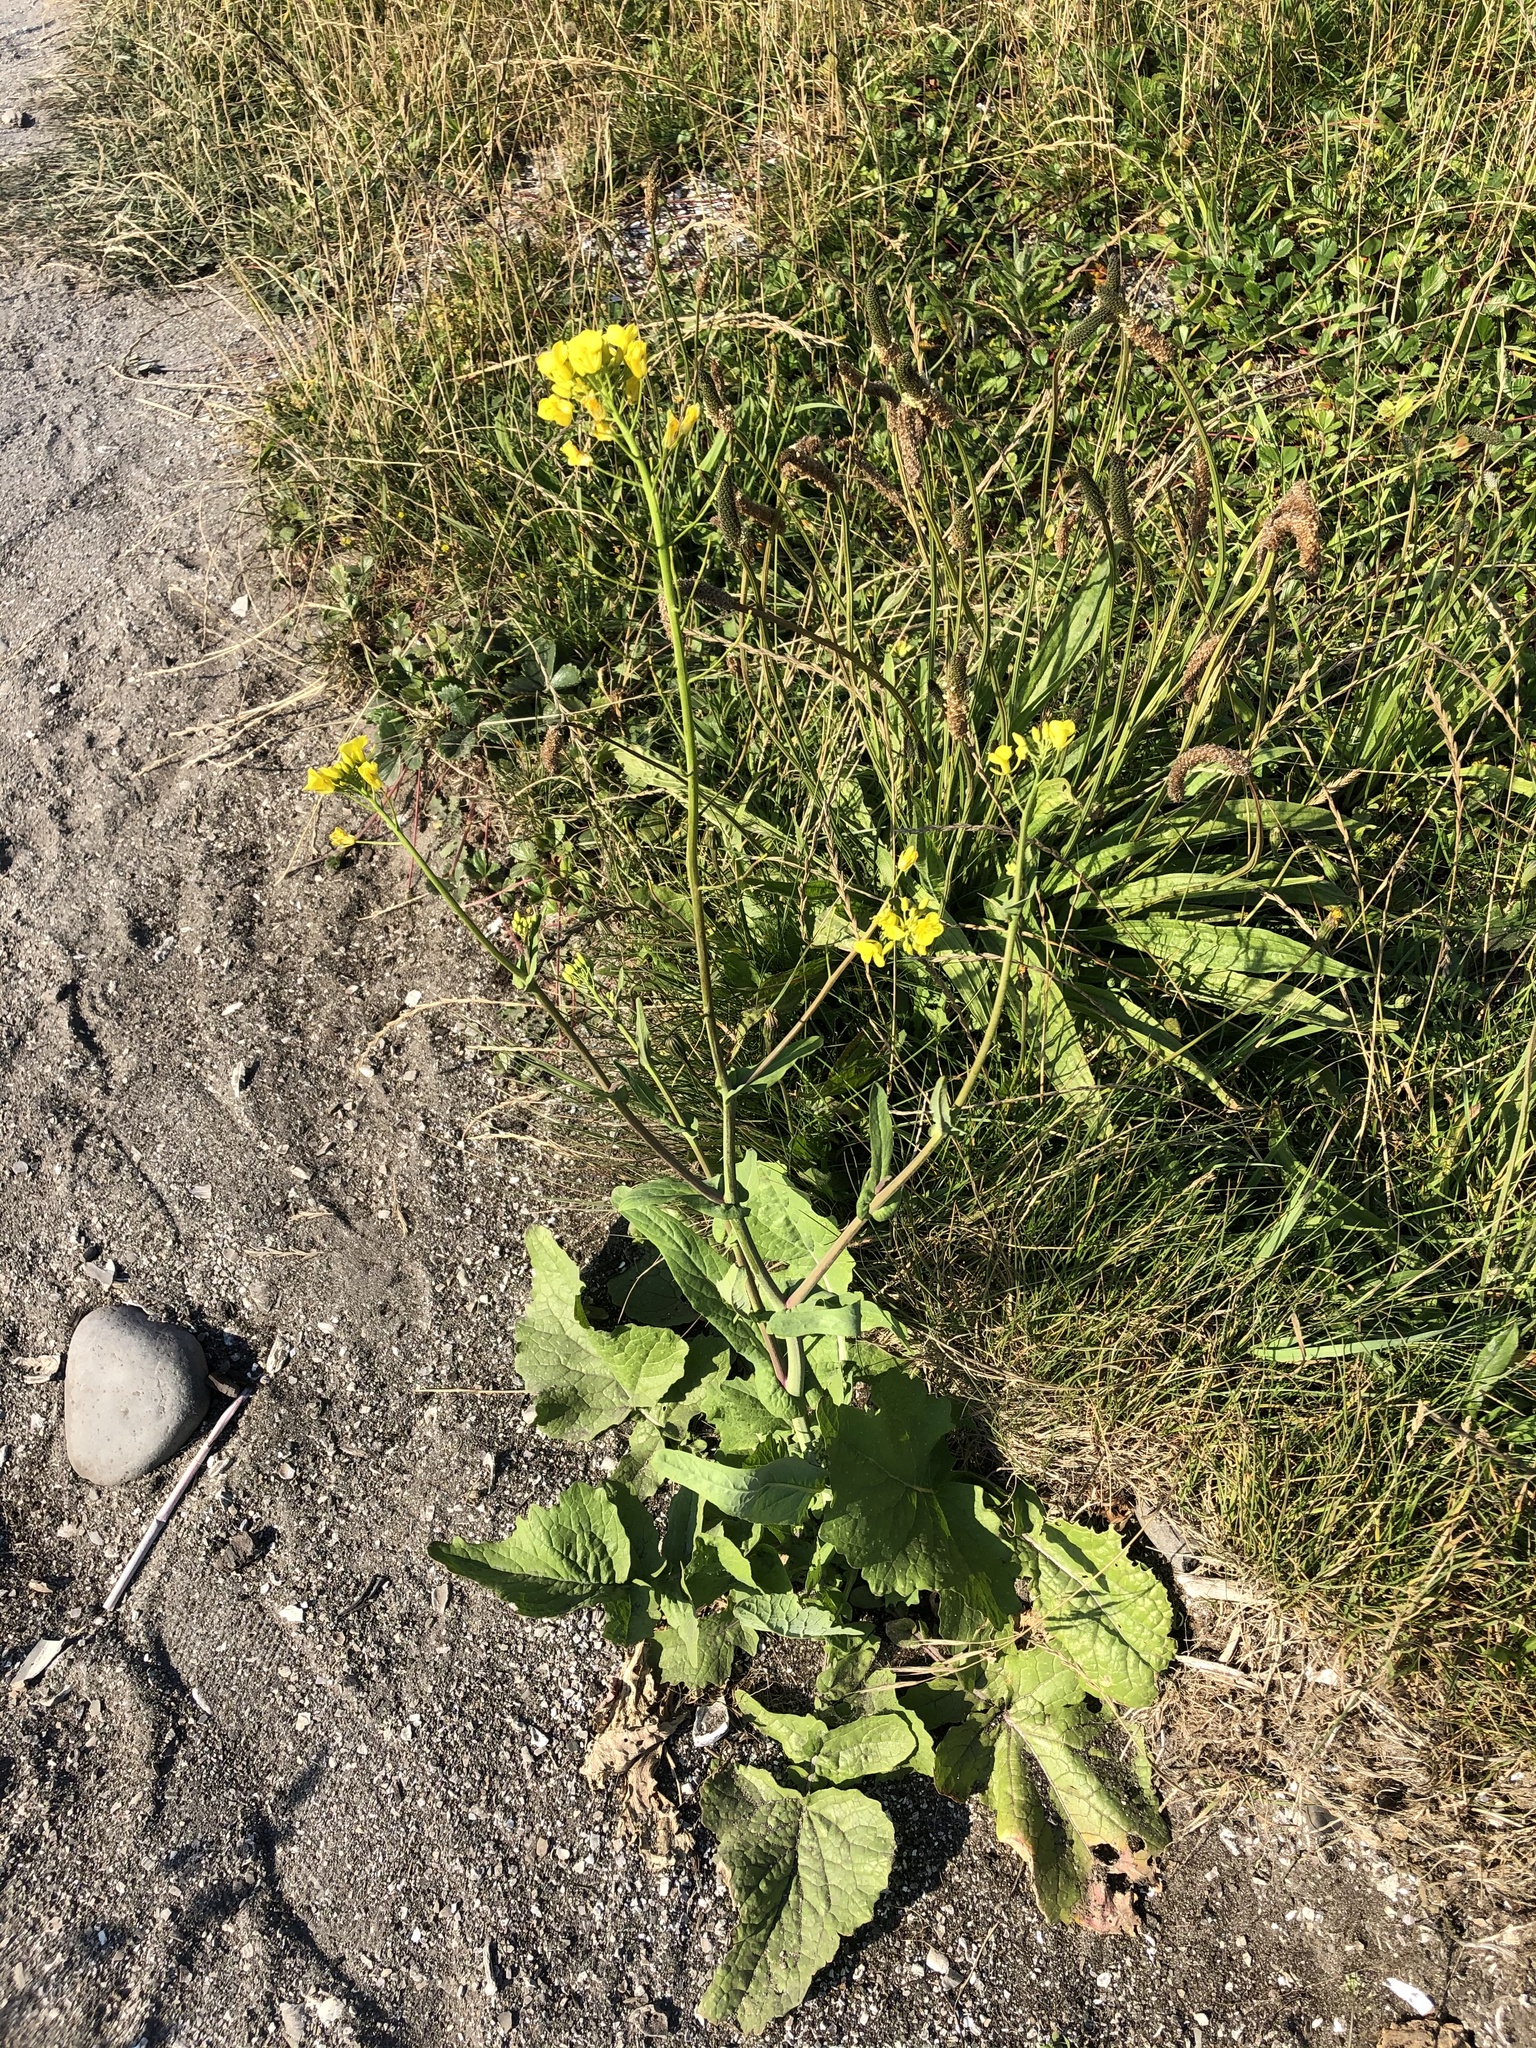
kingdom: Plantae
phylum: Tracheophyta
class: Magnoliopsida
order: Brassicales
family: Brassicaceae
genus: Brassica
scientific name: Brassica rapa
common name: Field mustard
